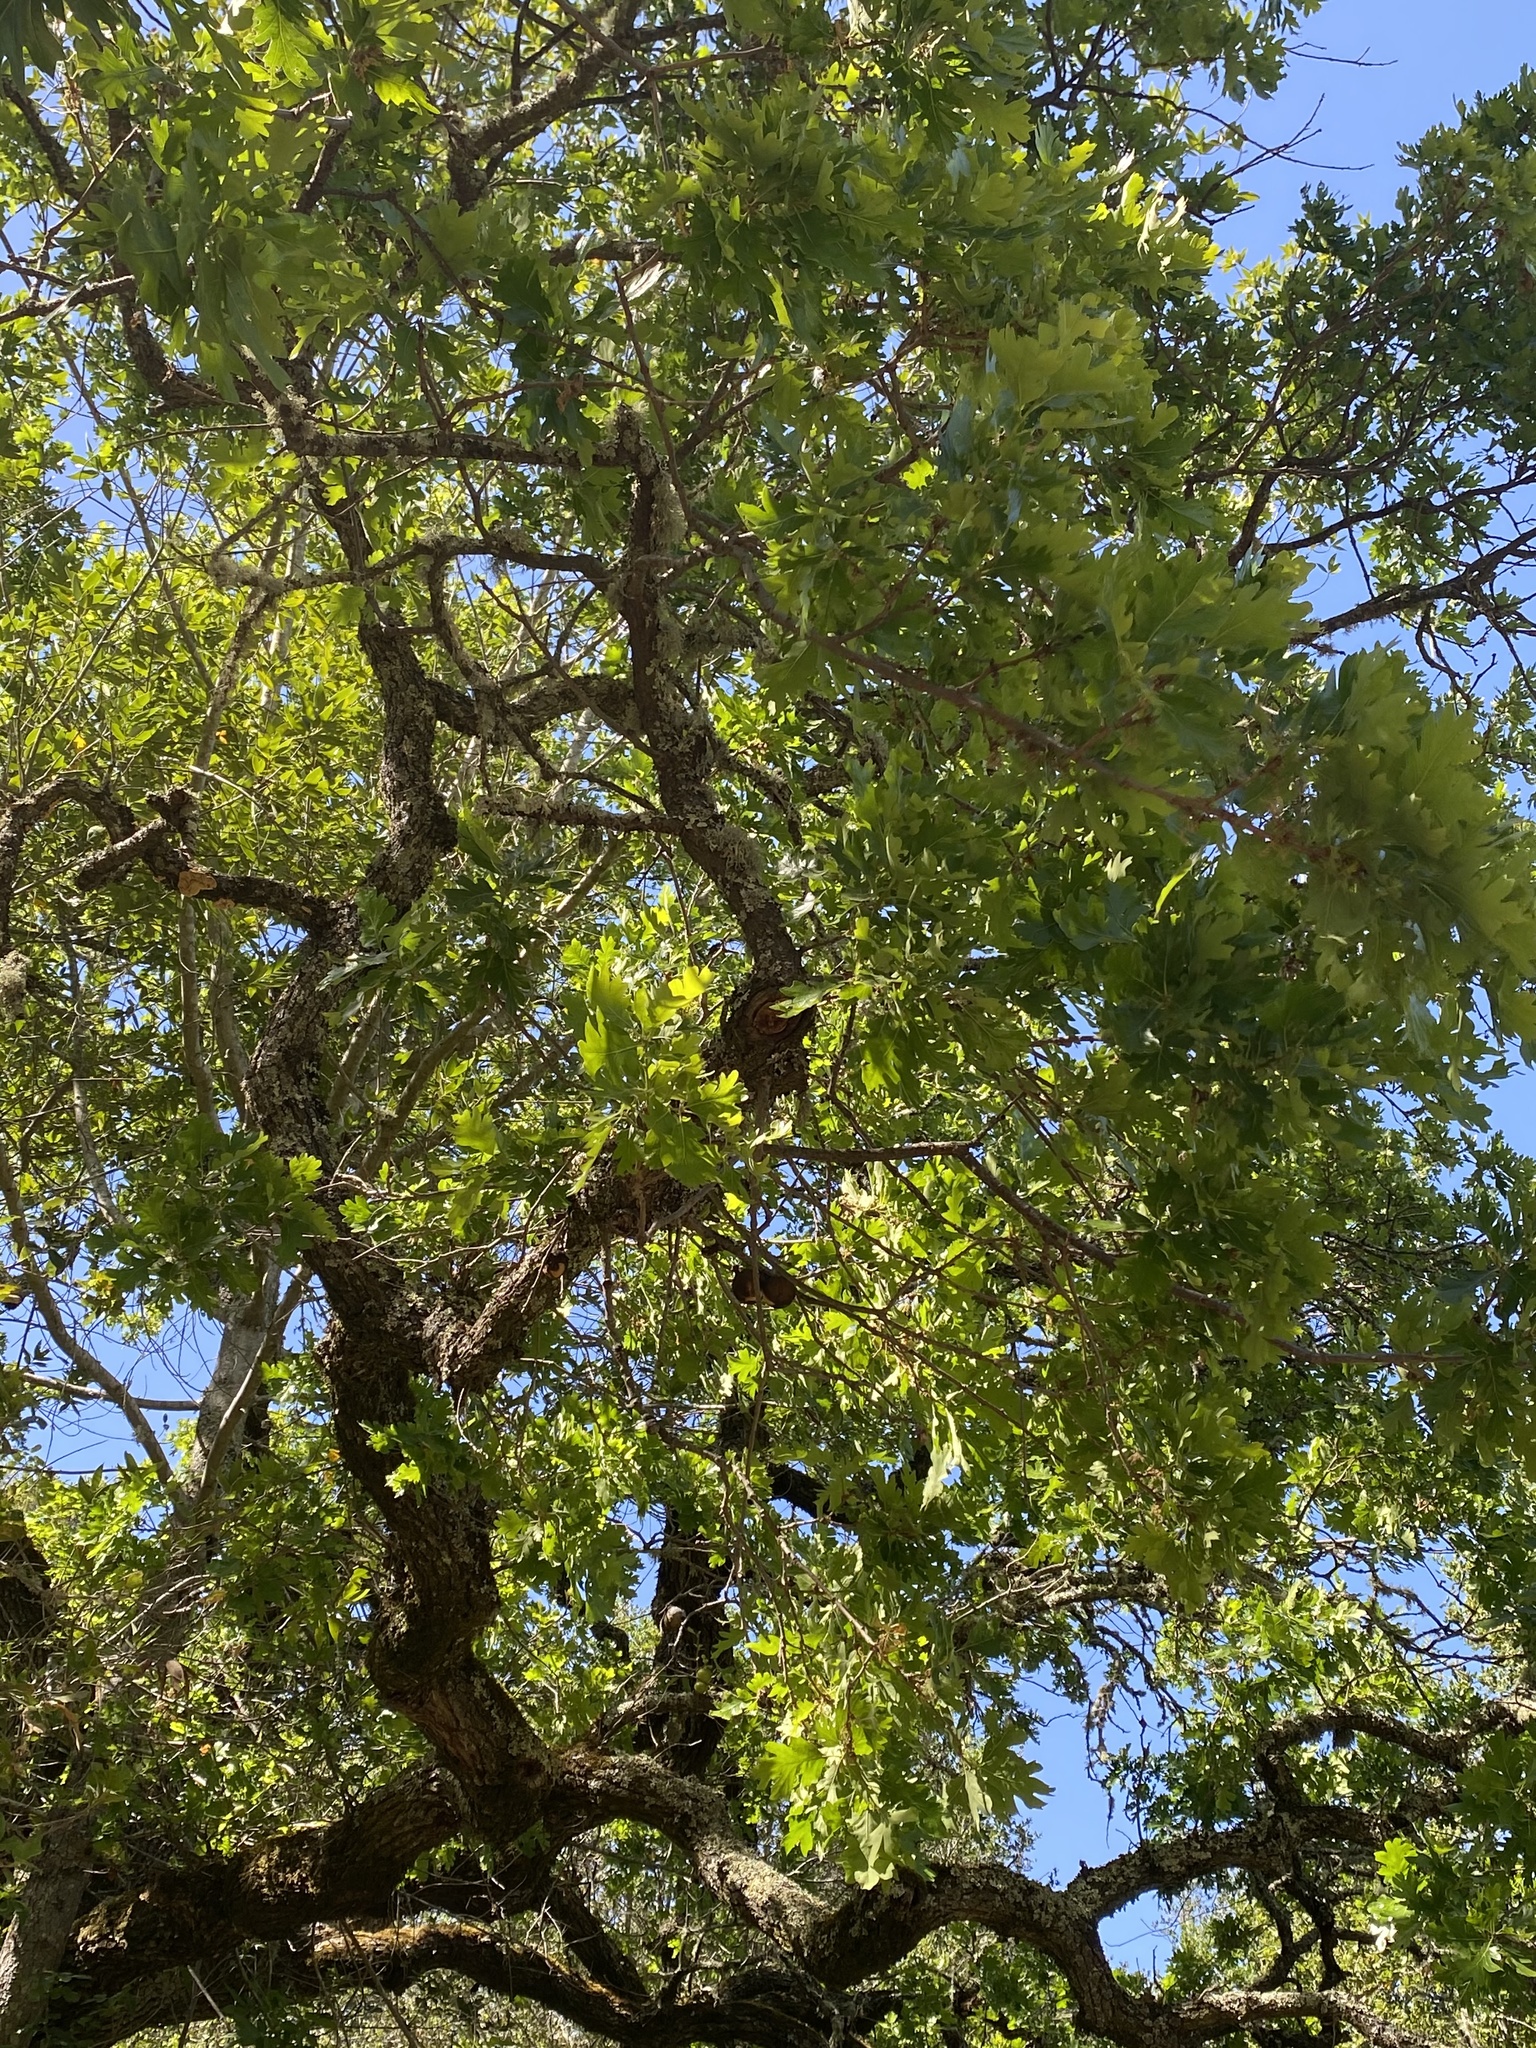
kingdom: Plantae
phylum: Tracheophyta
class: Magnoliopsida
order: Fagales
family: Fagaceae
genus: Quercus
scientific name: Quercus lobata
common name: Valley oak
